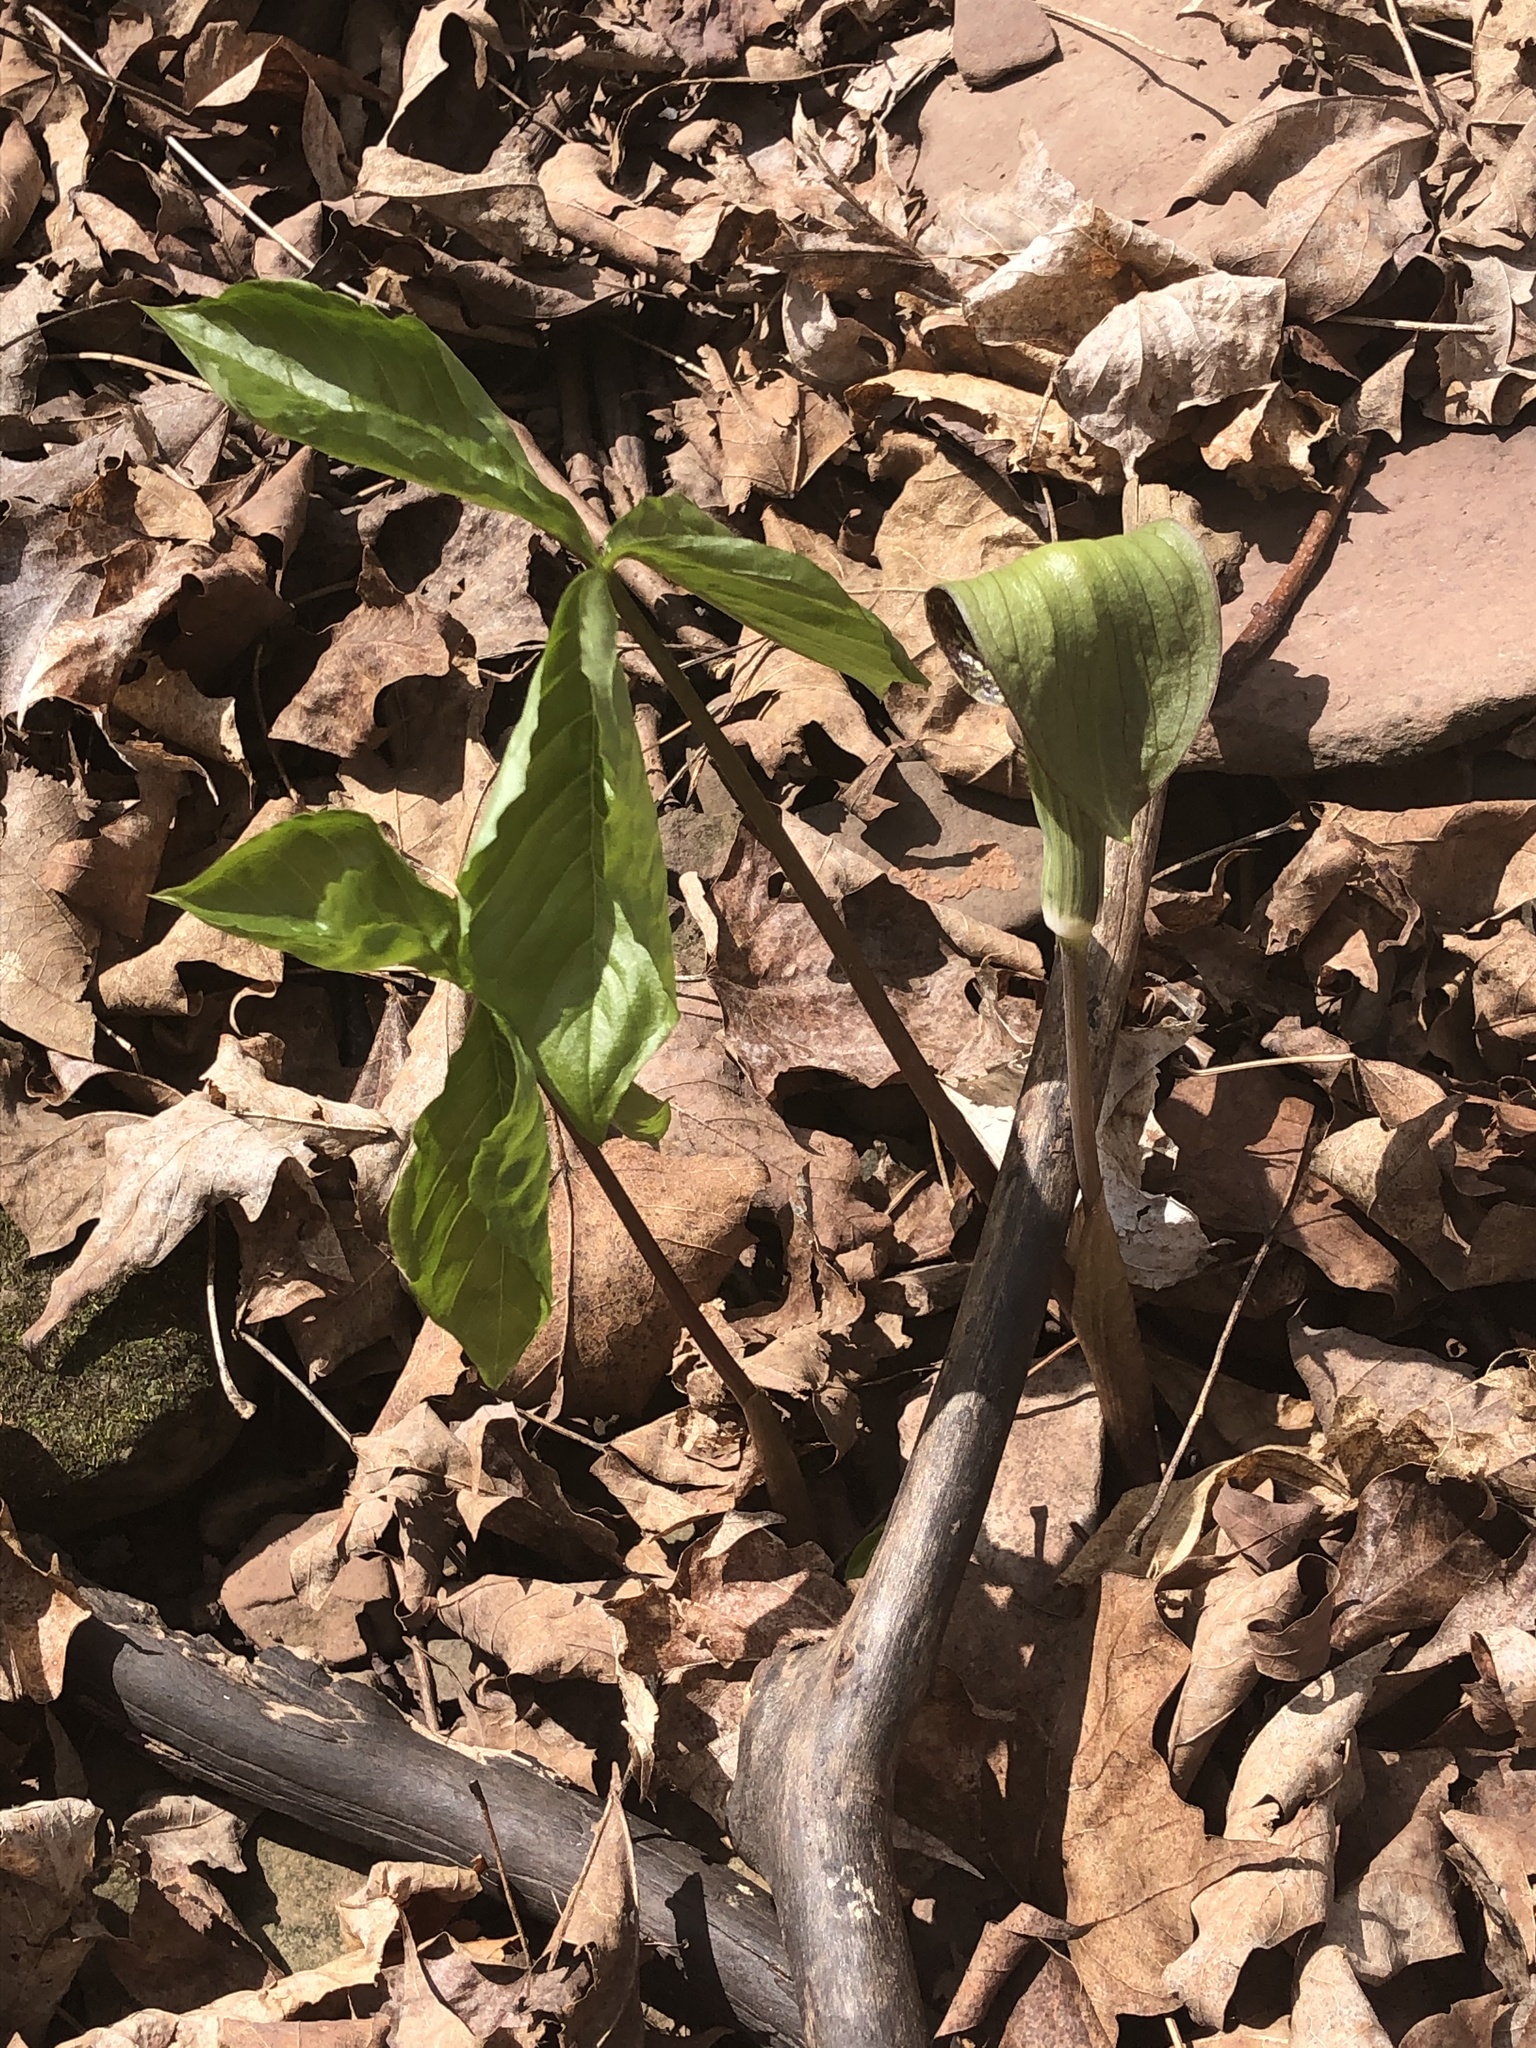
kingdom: Plantae
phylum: Tracheophyta
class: Liliopsida
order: Alismatales
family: Araceae
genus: Arisaema
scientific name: Arisaema triphyllum
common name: Jack-in-the-pulpit
